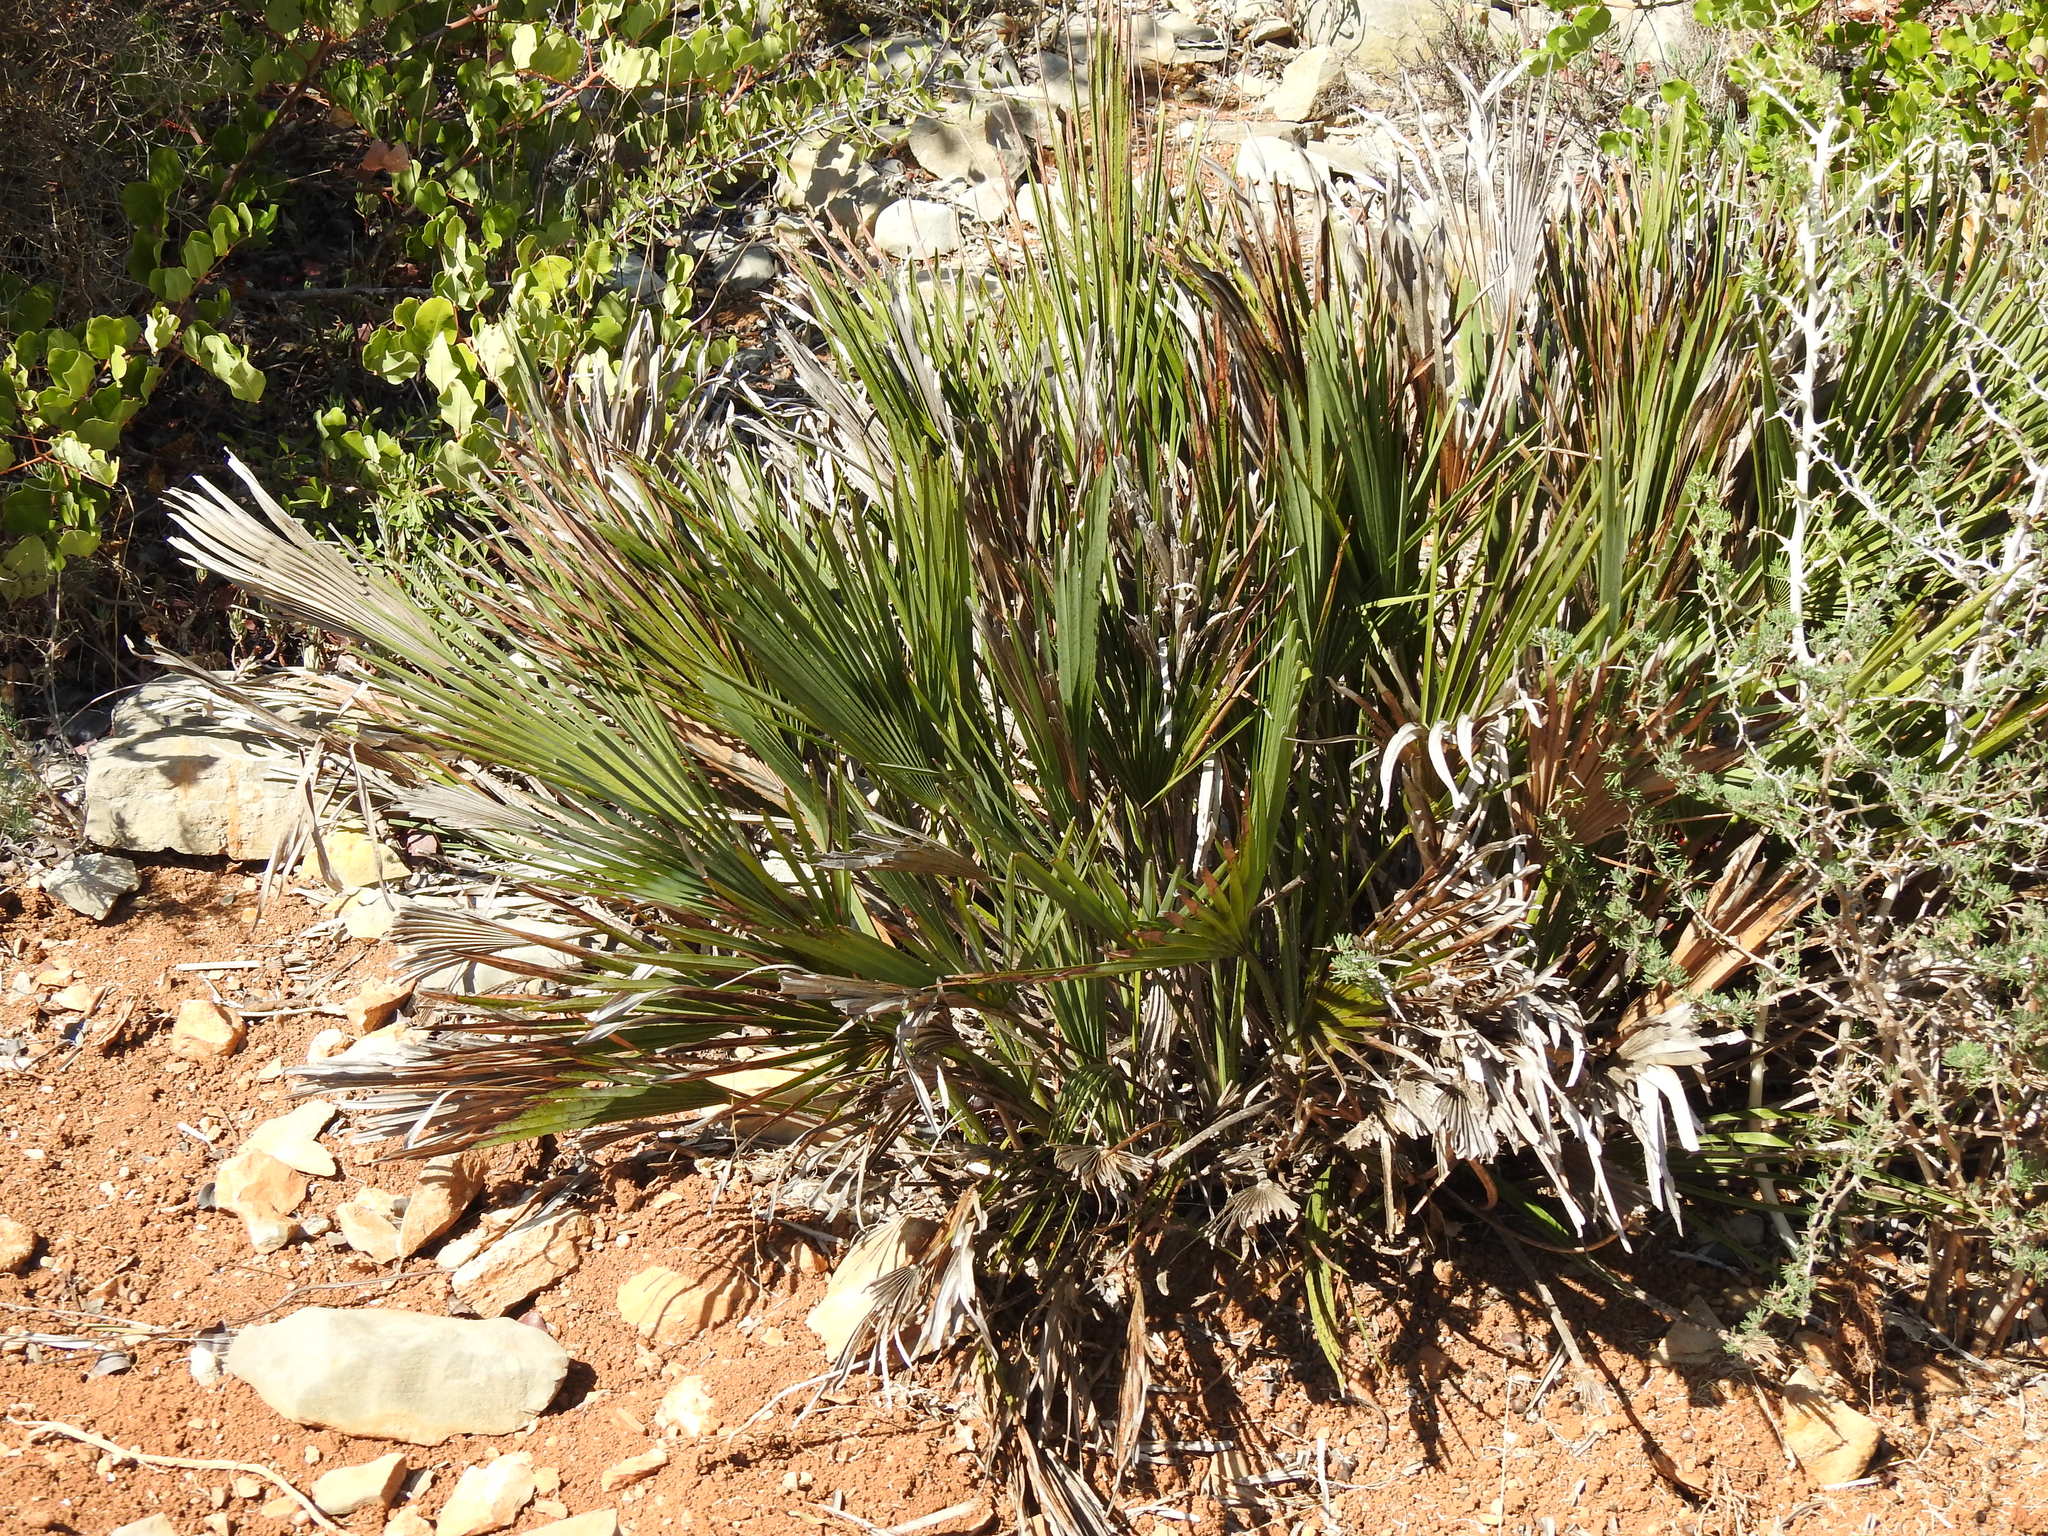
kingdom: Plantae
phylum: Tracheophyta
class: Liliopsida
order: Arecales
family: Arecaceae
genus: Chamaerops
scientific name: Chamaerops humilis
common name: Dwarf fan palm
